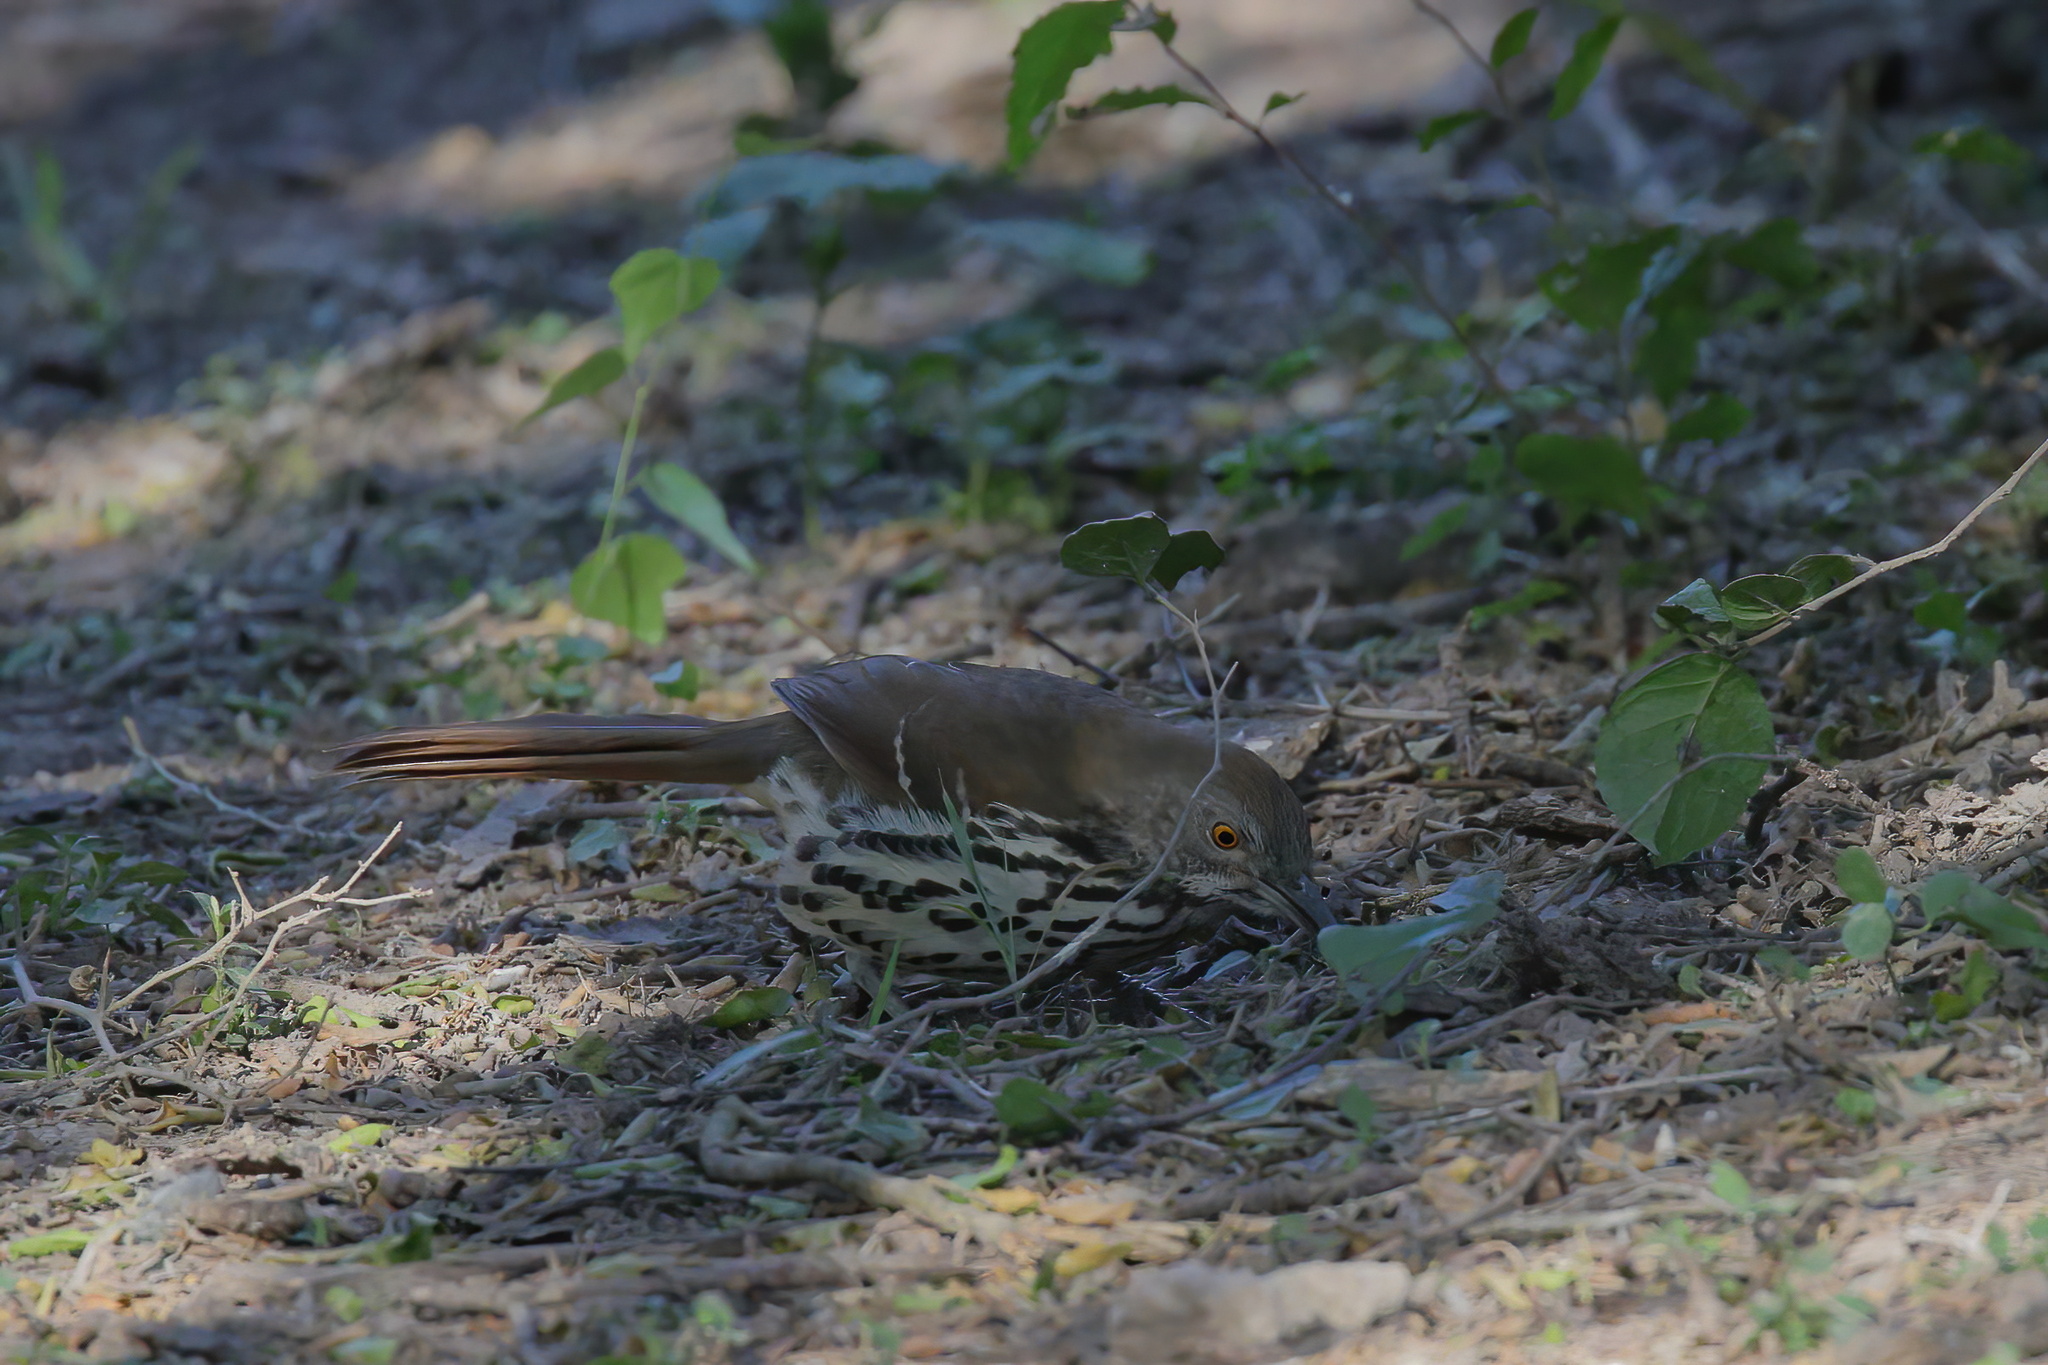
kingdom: Animalia
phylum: Chordata
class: Aves
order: Passeriformes
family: Mimidae
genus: Toxostoma
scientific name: Toxostoma longirostre
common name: Long-billed thrasher
